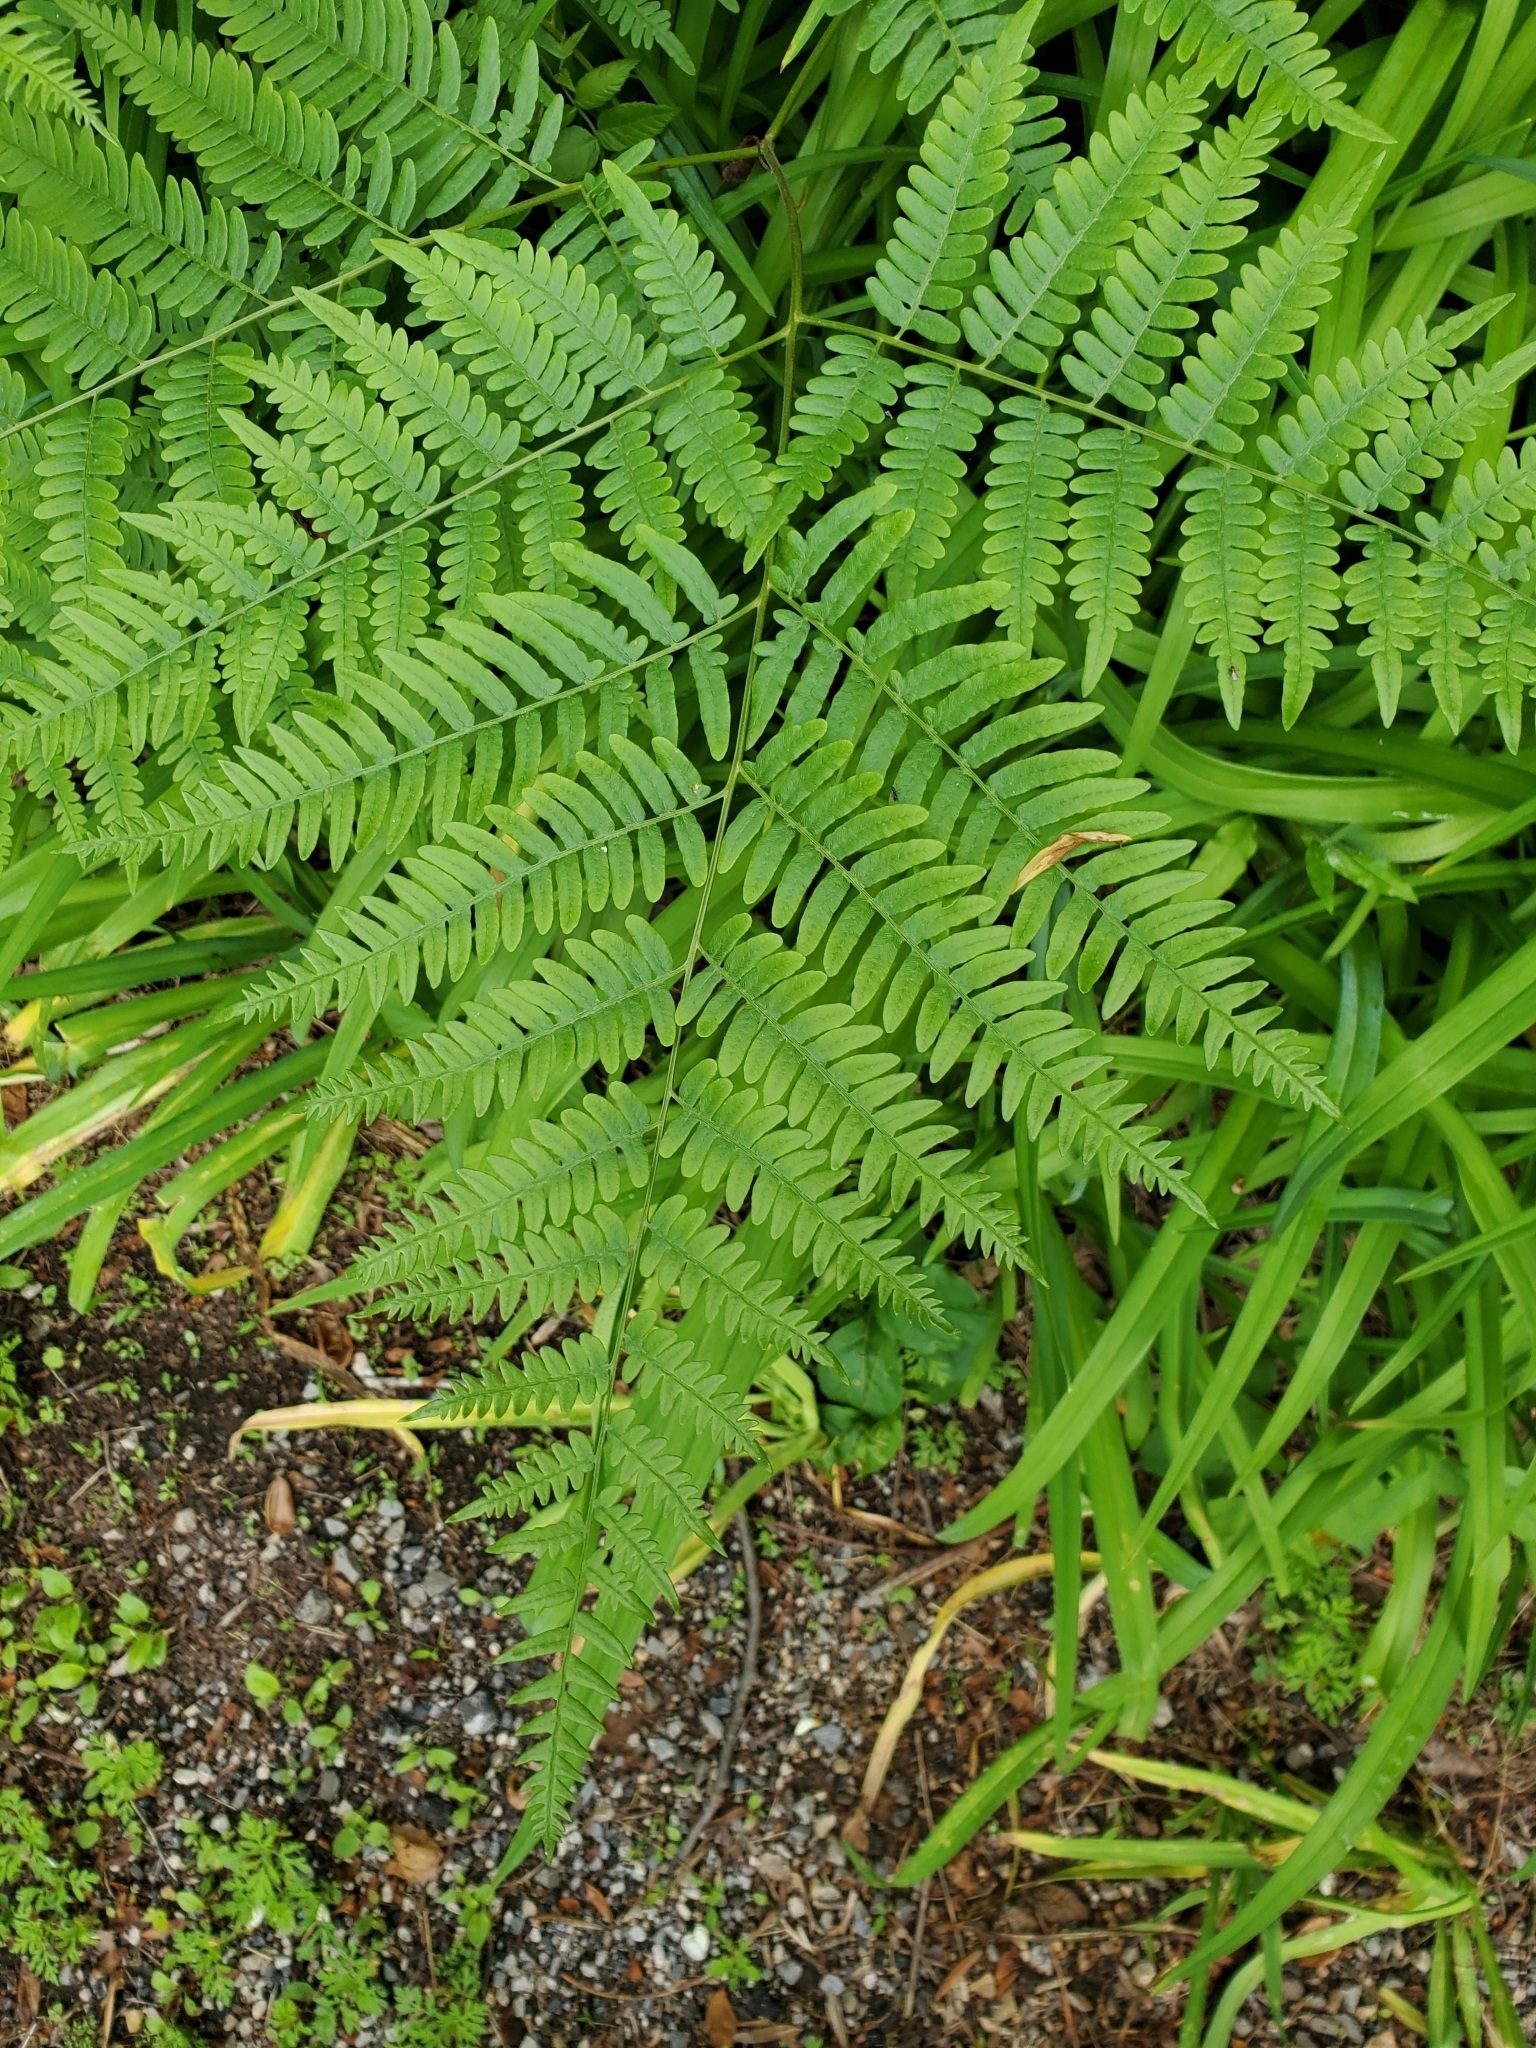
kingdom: Plantae
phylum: Tracheophyta
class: Polypodiopsida
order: Polypodiales
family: Dennstaedtiaceae
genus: Pteridium
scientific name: Pteridium aquilinum
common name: Bracken
